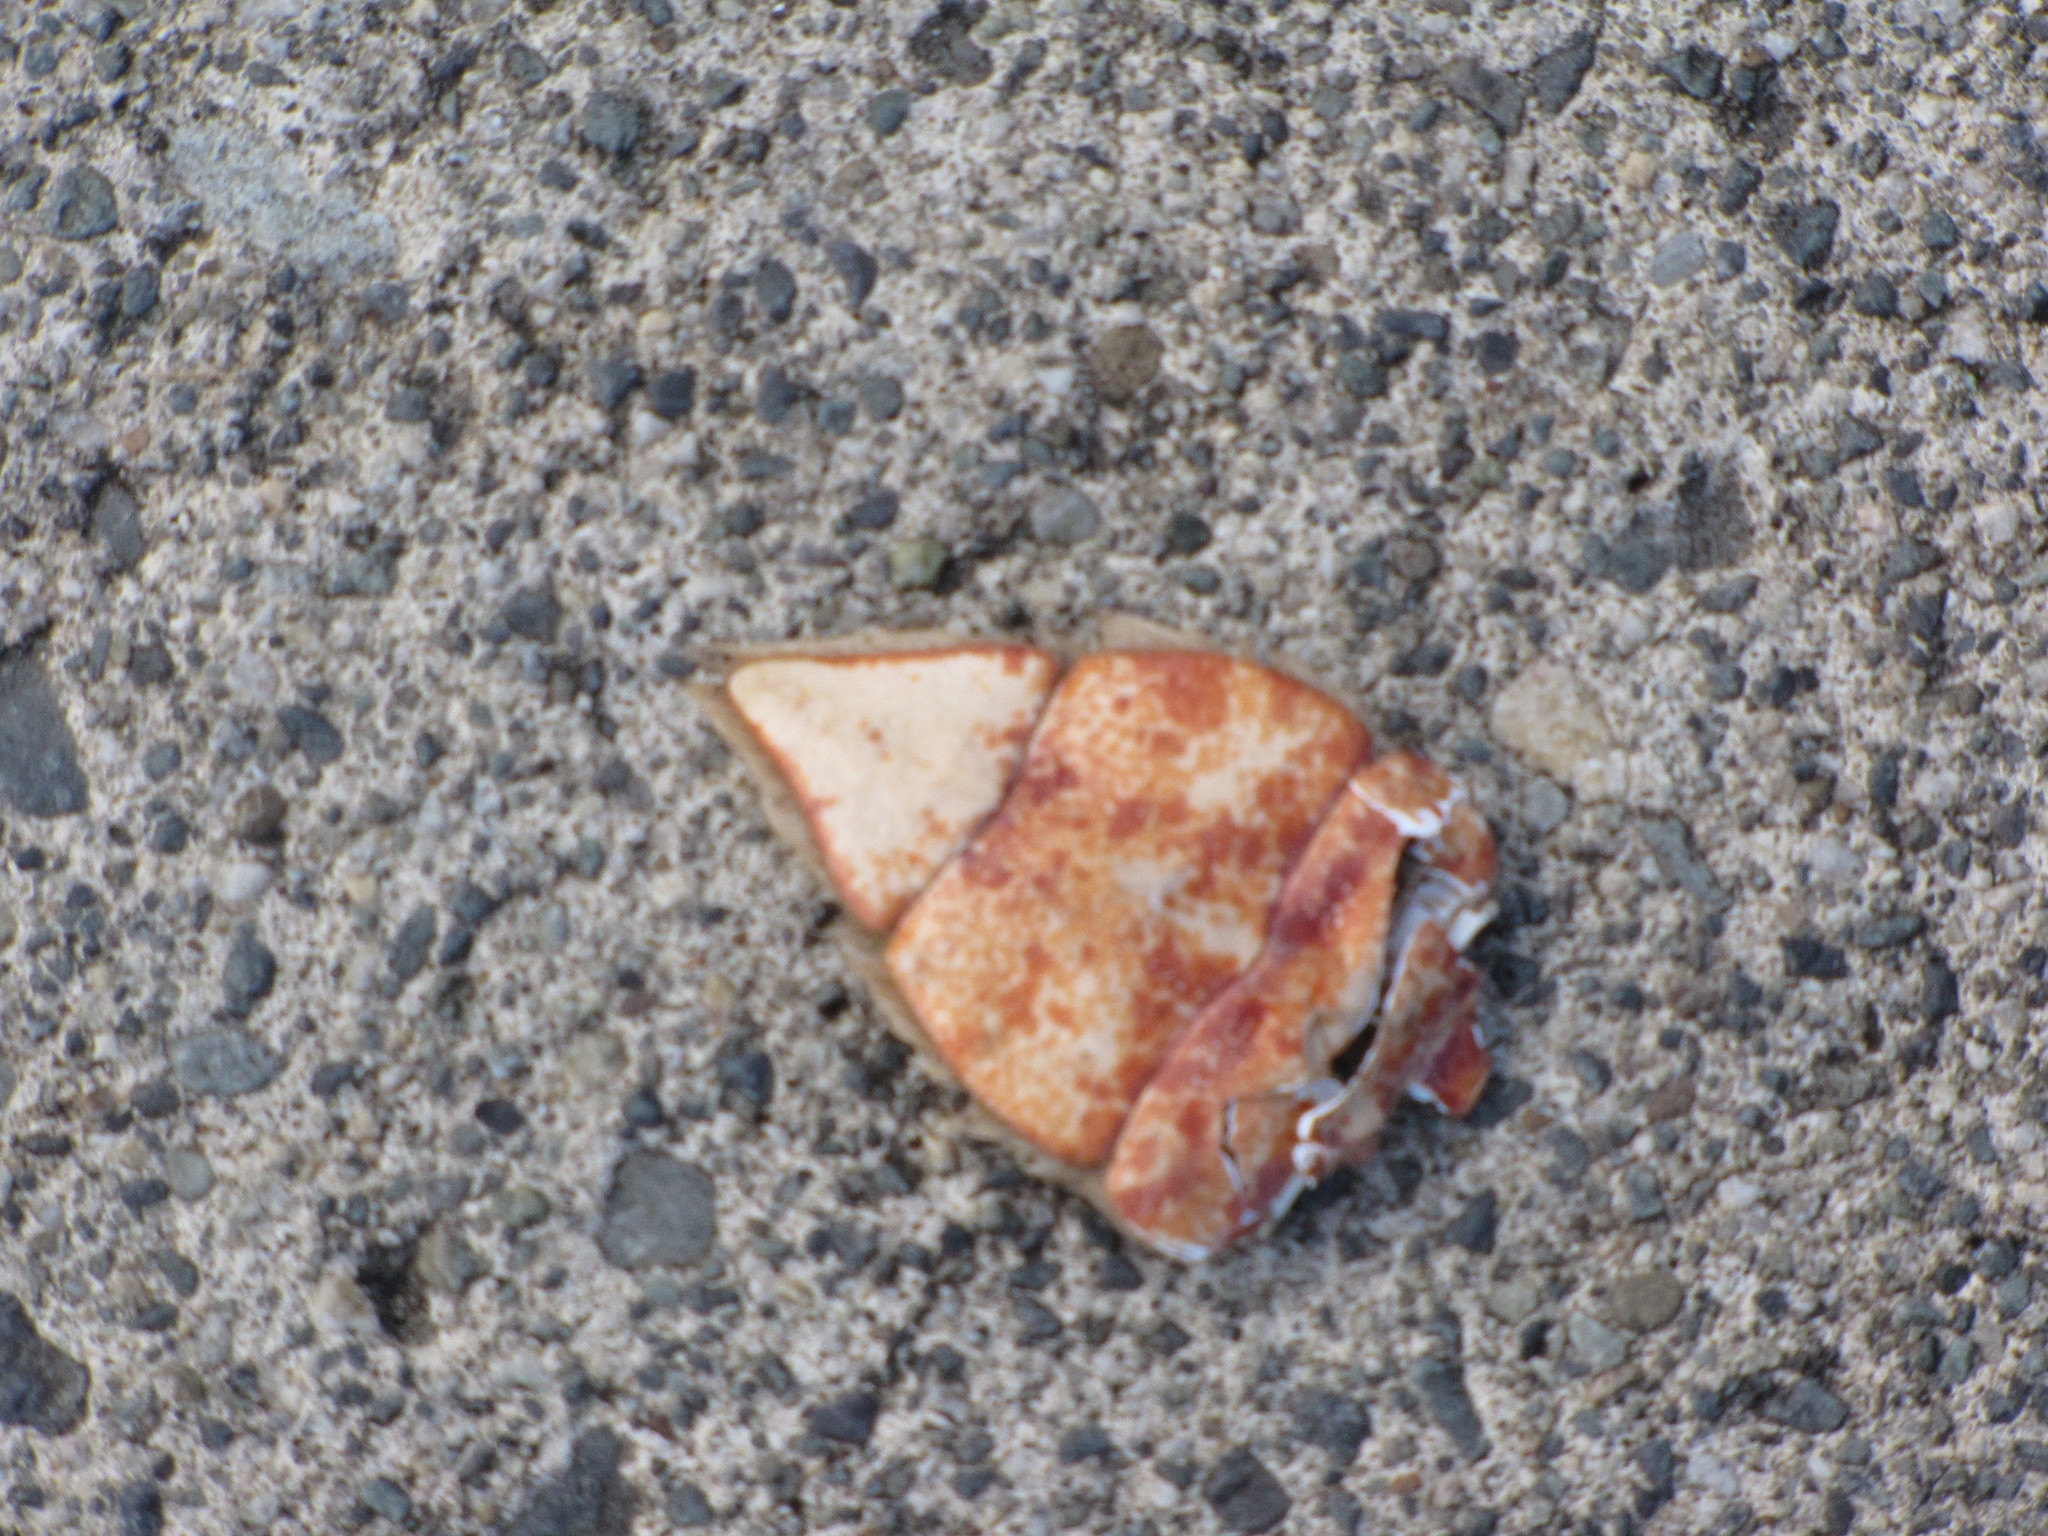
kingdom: Animalia
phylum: Arthropoda
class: Malacostraca
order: Decapoda
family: Cancridae
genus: Cancer
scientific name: Cancer productus
